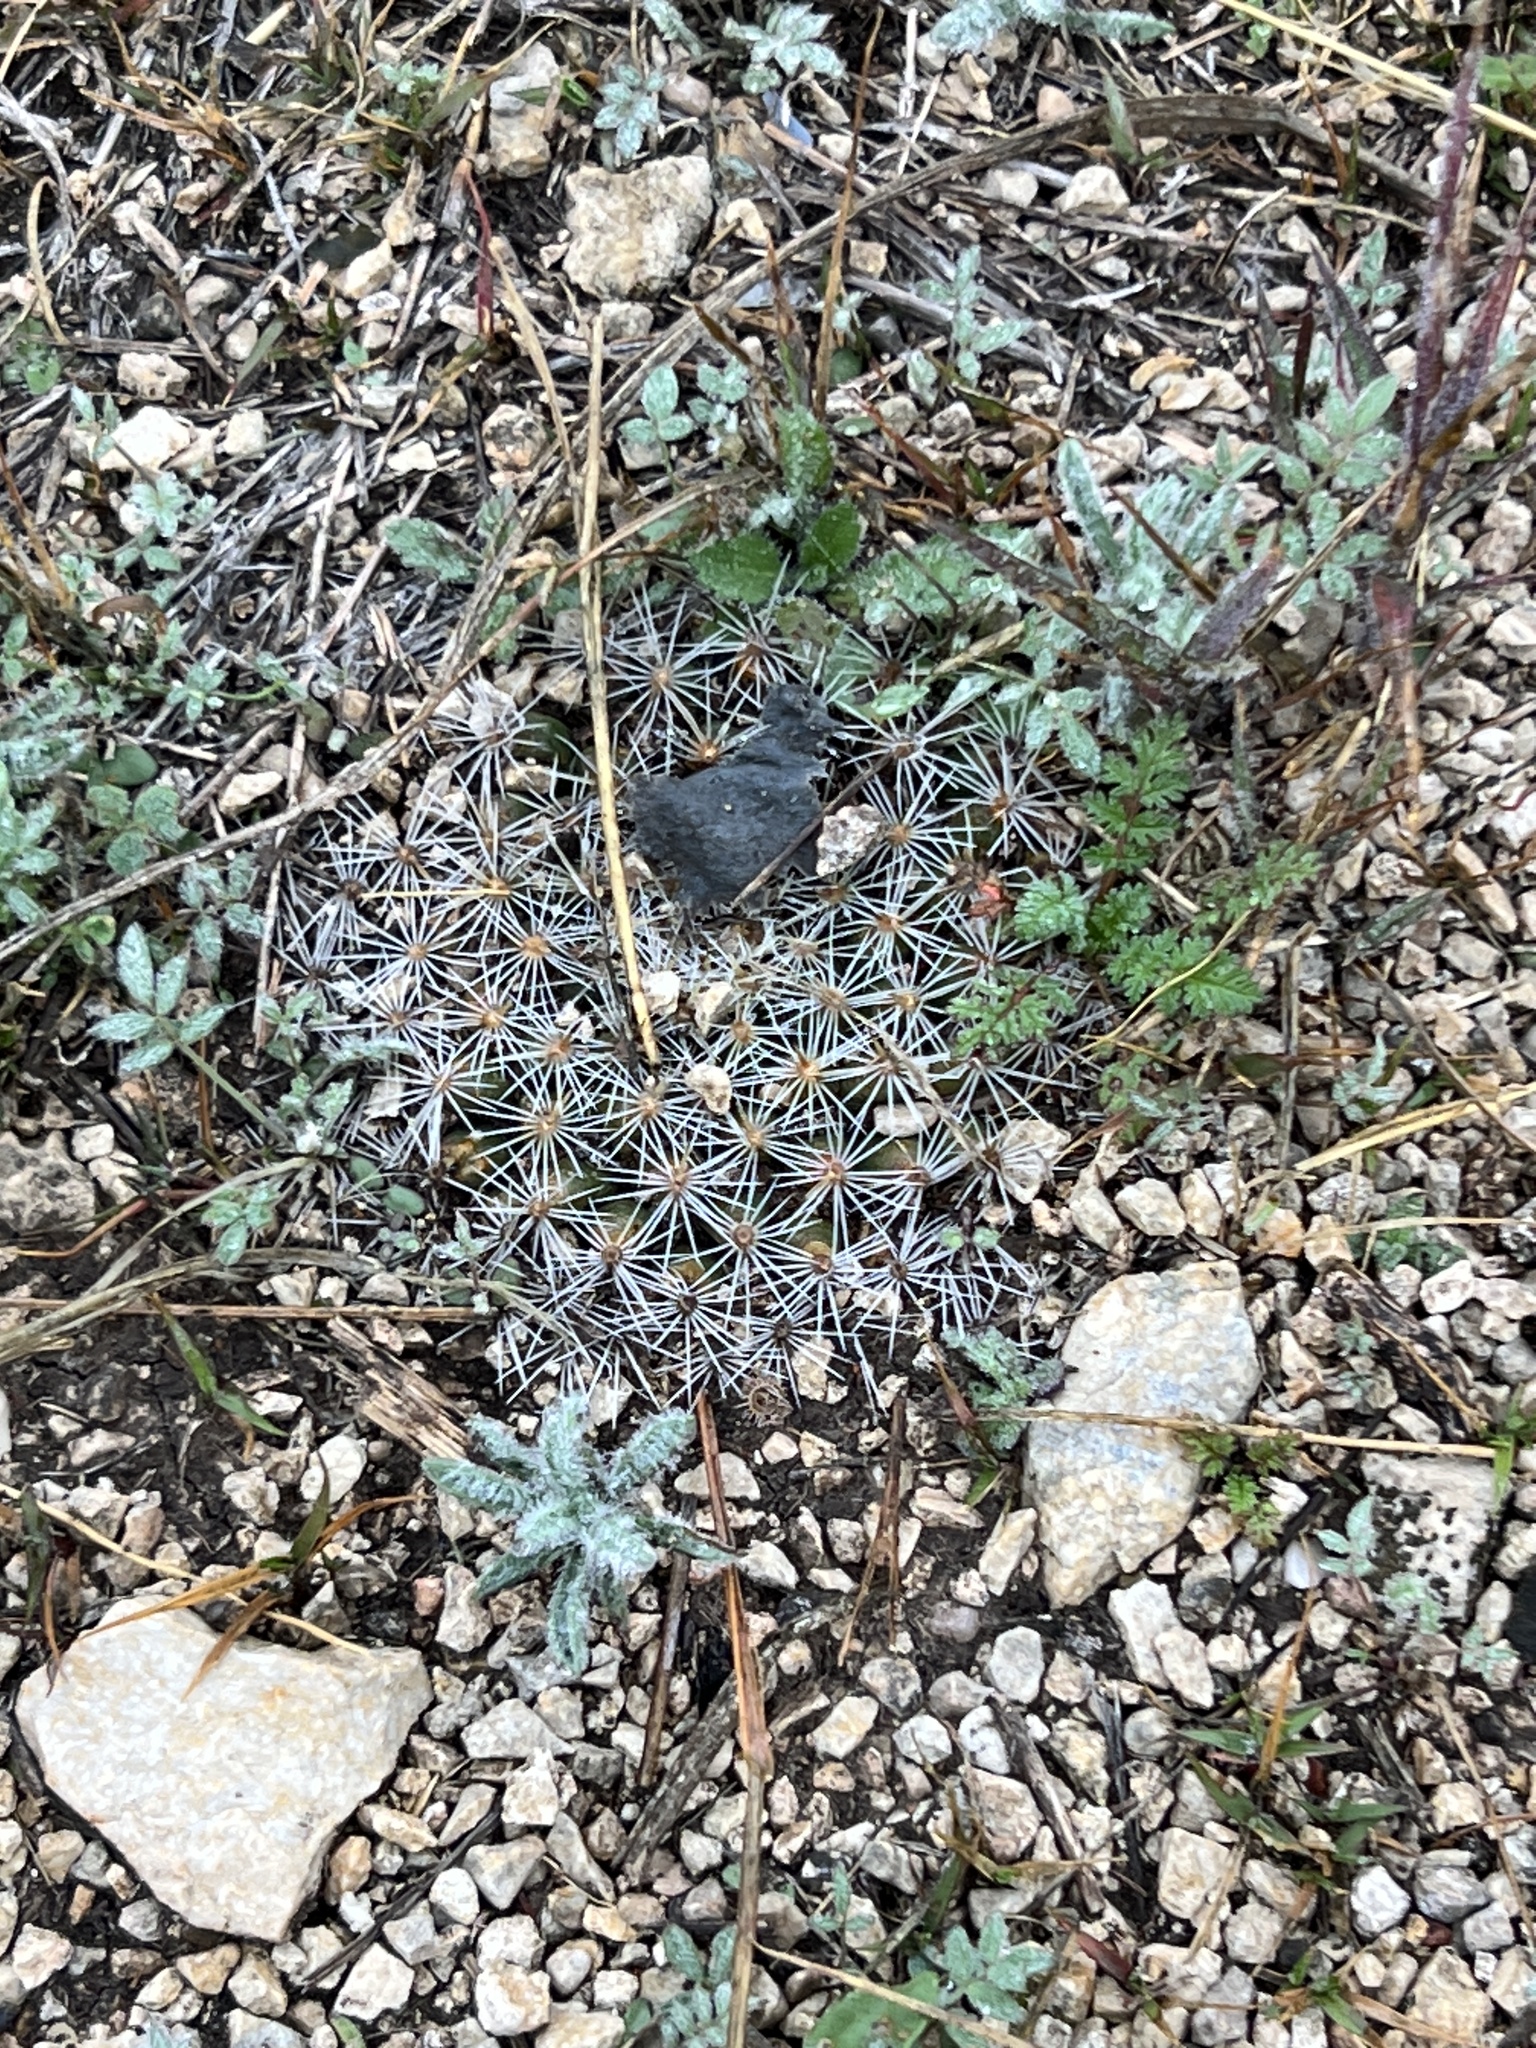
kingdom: Plantae
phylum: Tracheophyta
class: Magnoliopsida
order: Caryophyllales
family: Cactaceae
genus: Mammillaria
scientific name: Mammillaria heyderi
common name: Little nipple cactus
